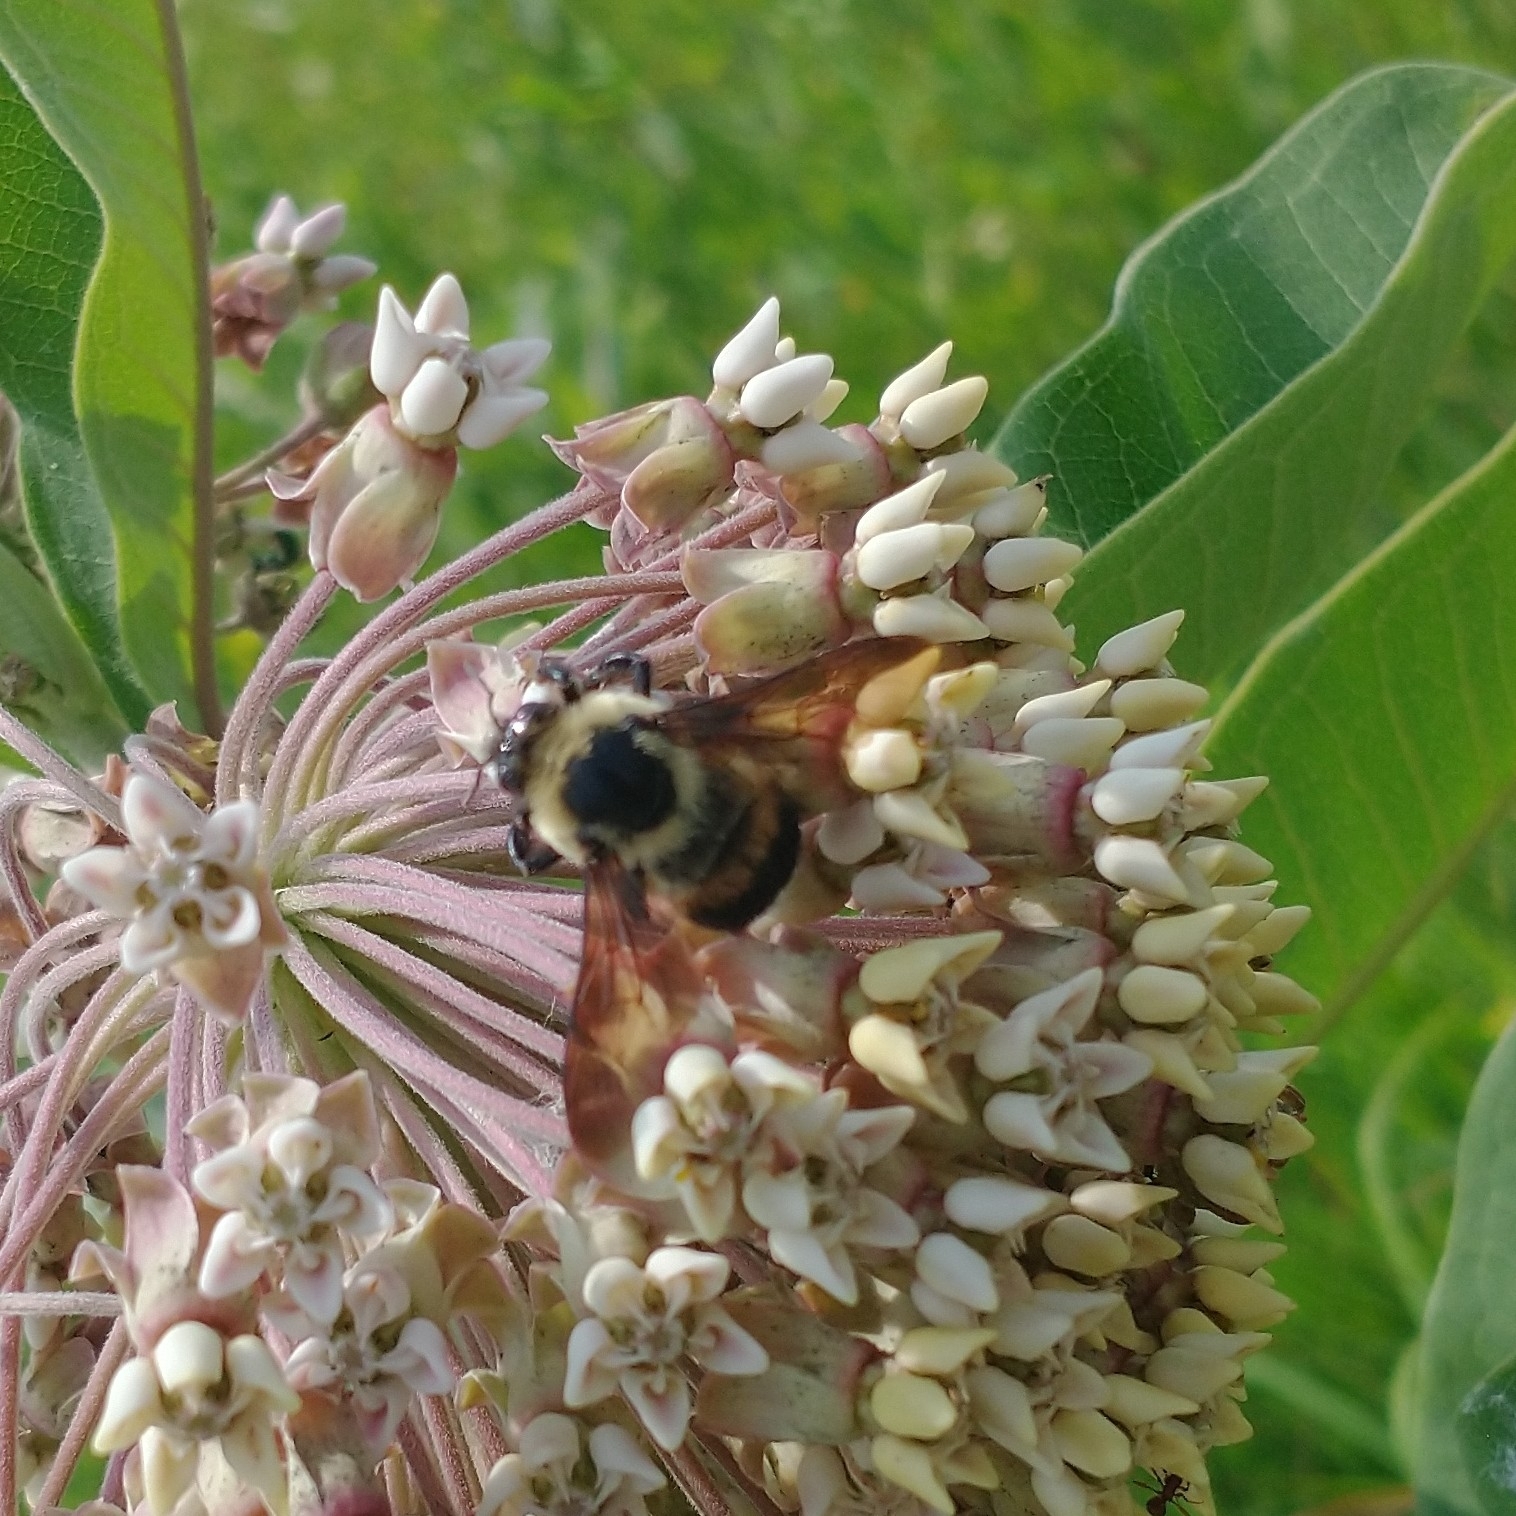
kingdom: Animalia
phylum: Arthropoda
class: Insecta
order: Hymenoptera
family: Apidae
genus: Bombus
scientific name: Bombus griseocollis
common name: Brown-belted bumble bee
